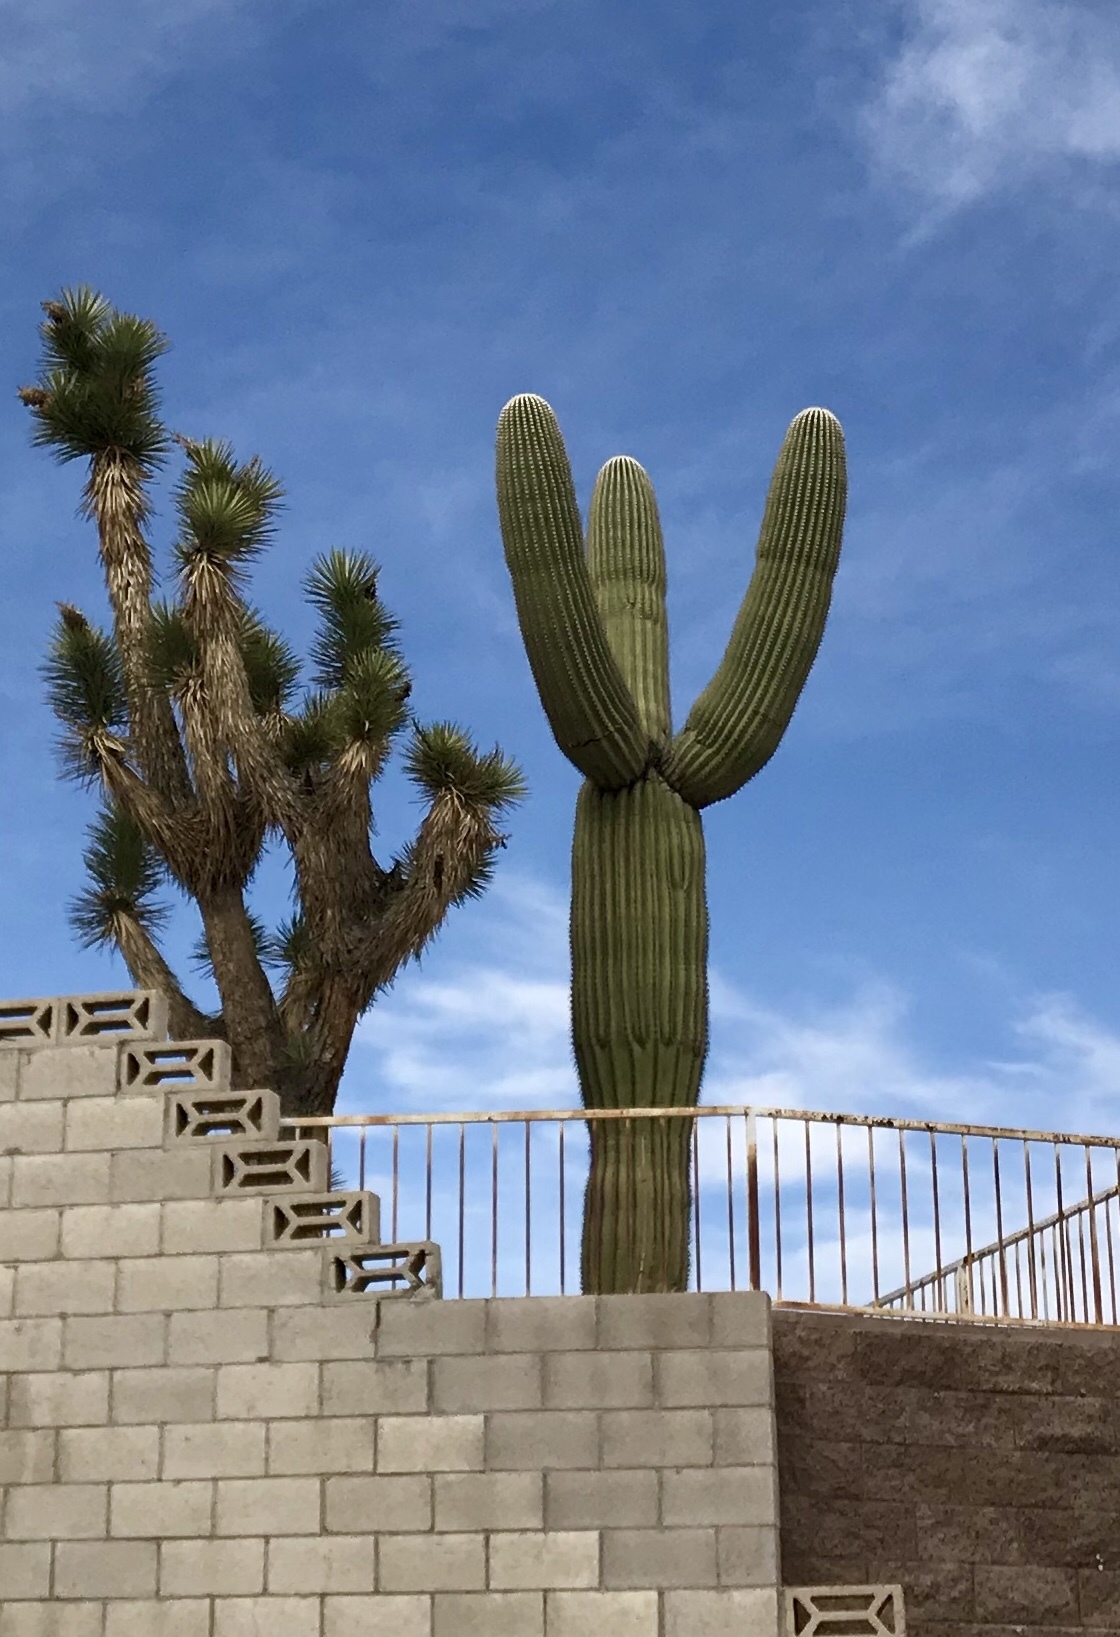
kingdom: Plantae
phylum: Tracheophyta
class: Liliopsida
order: Asparagales
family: Asparagaceae
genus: Yucca
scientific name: Yucca brevifolia
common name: Joshua tree
